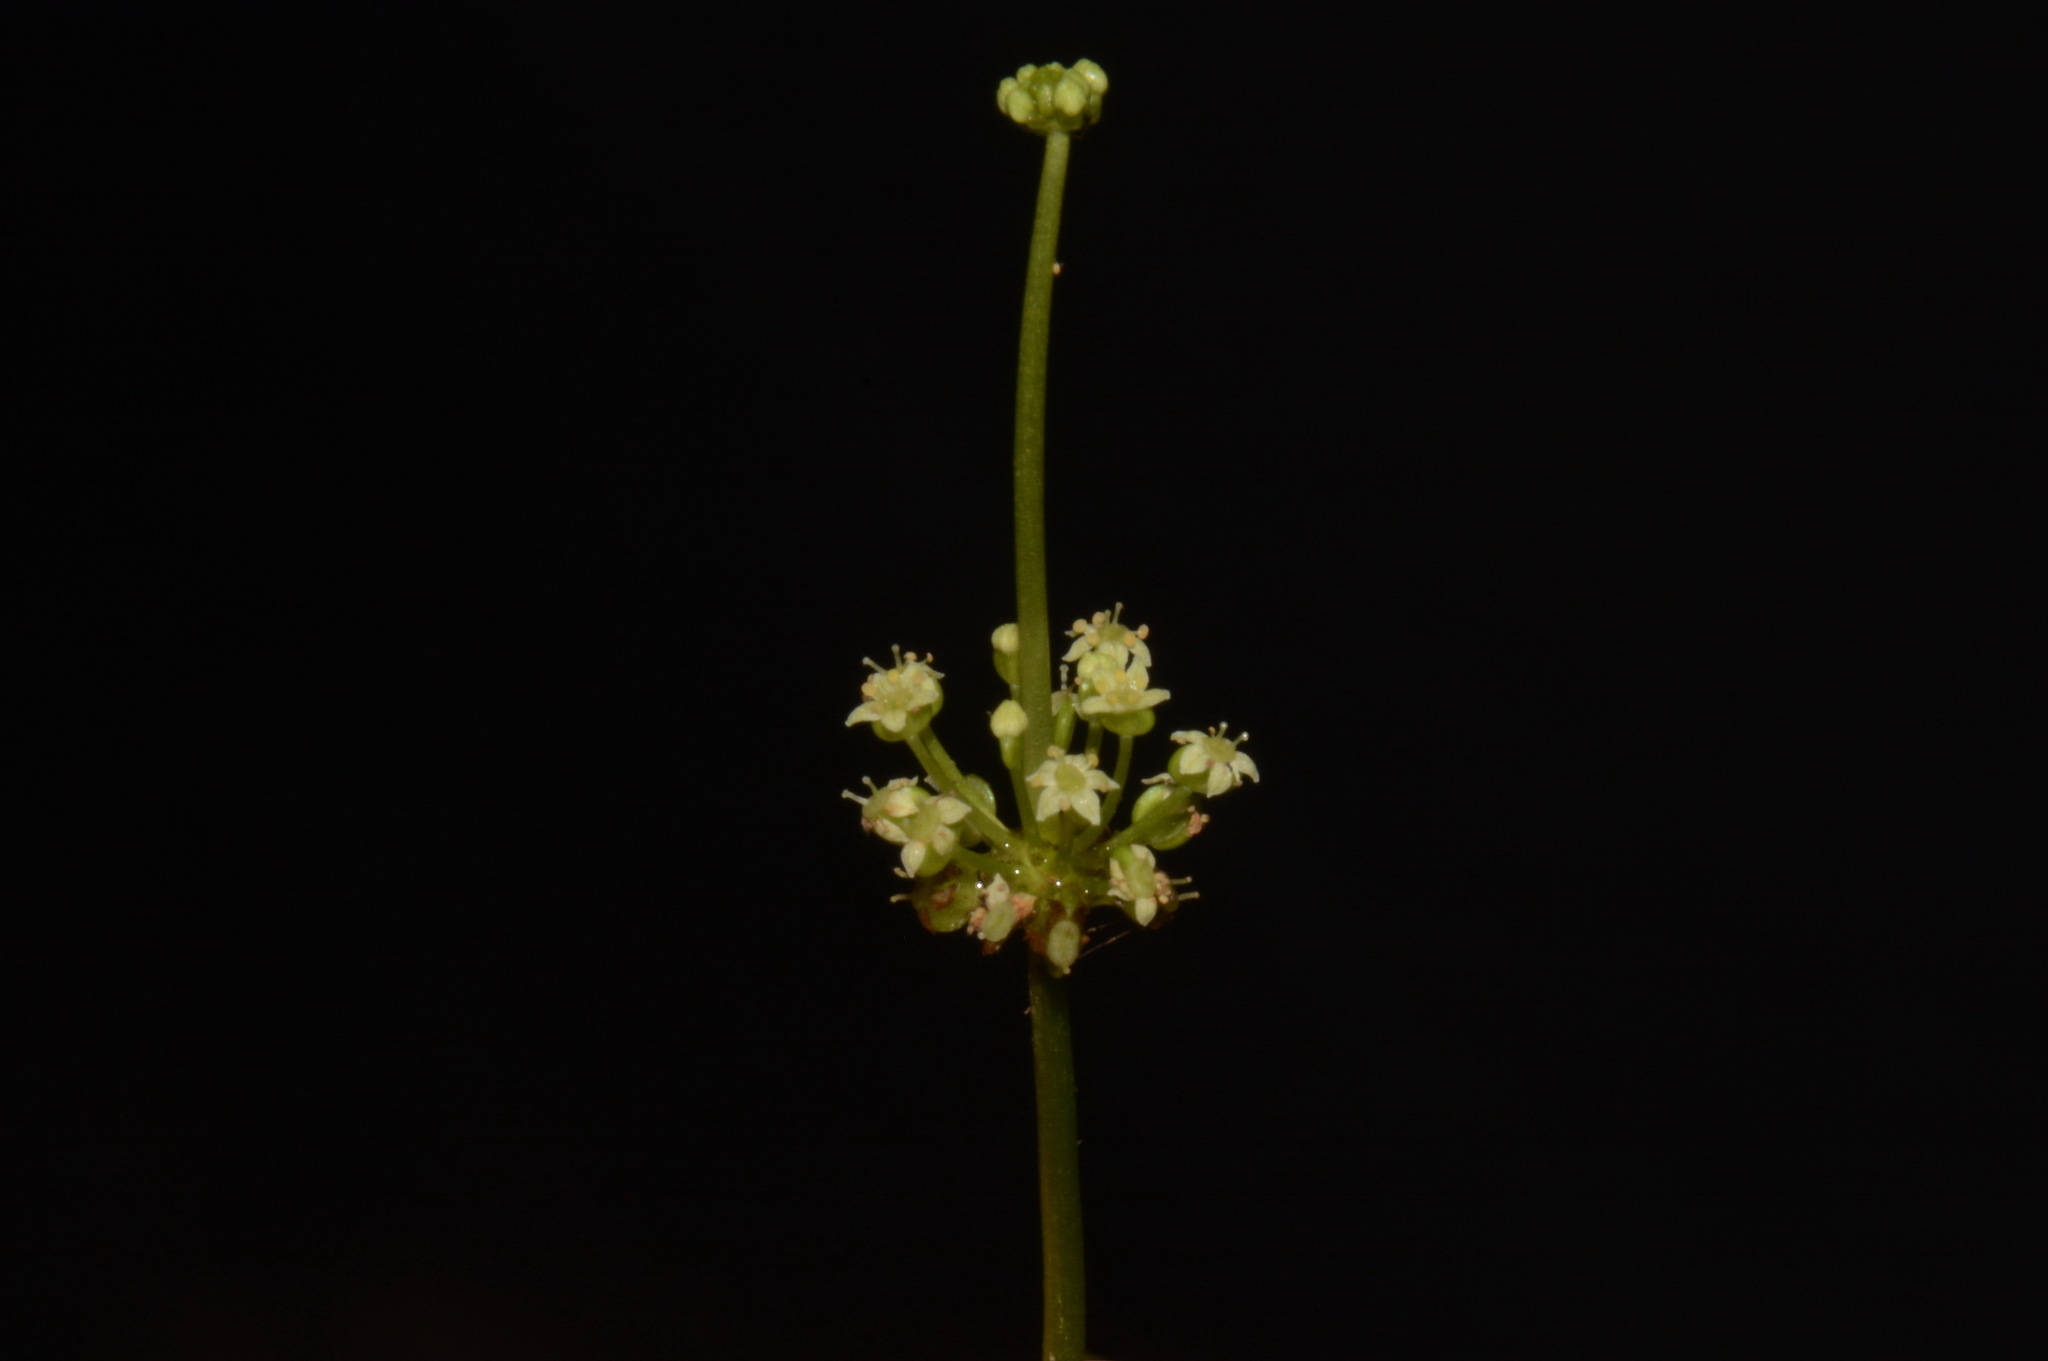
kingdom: Plantae
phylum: Tracheophyta
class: Magnoliopsida
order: Apiales
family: Araliaceae
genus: Hydrocotyle
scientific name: Hydrocotyle bonariensis
